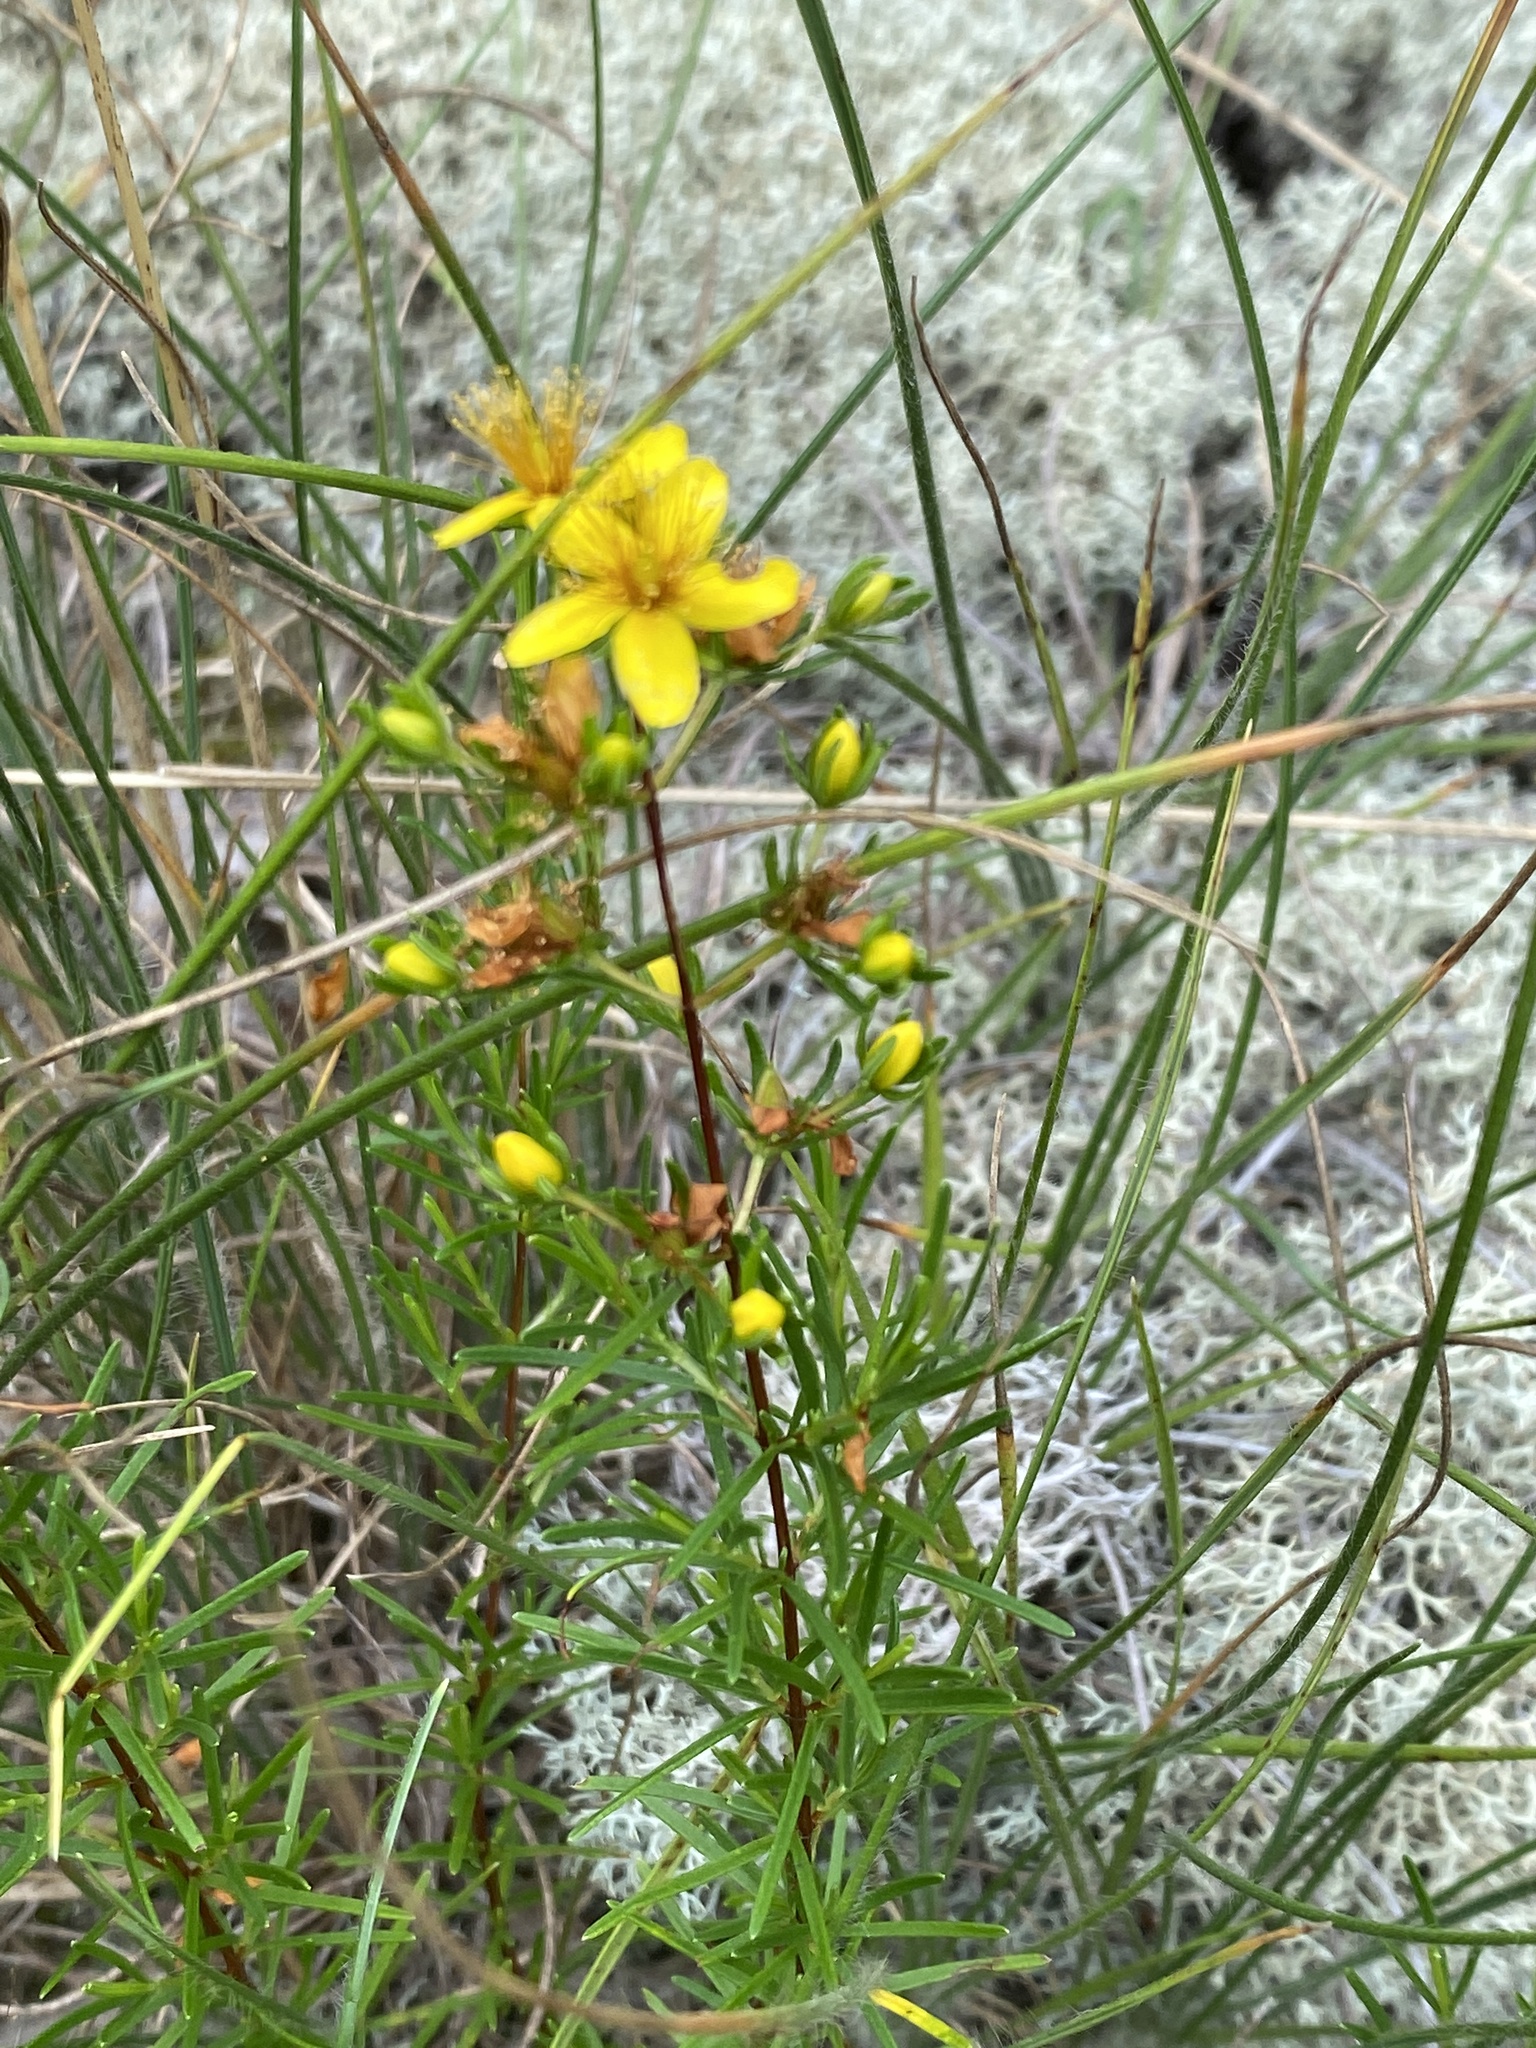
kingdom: Plantae
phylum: Tracheophyta
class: Magnoliopsida
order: Malpighiales
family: Hypericaceae
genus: Hypericum
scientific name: Hypericum lloydii
